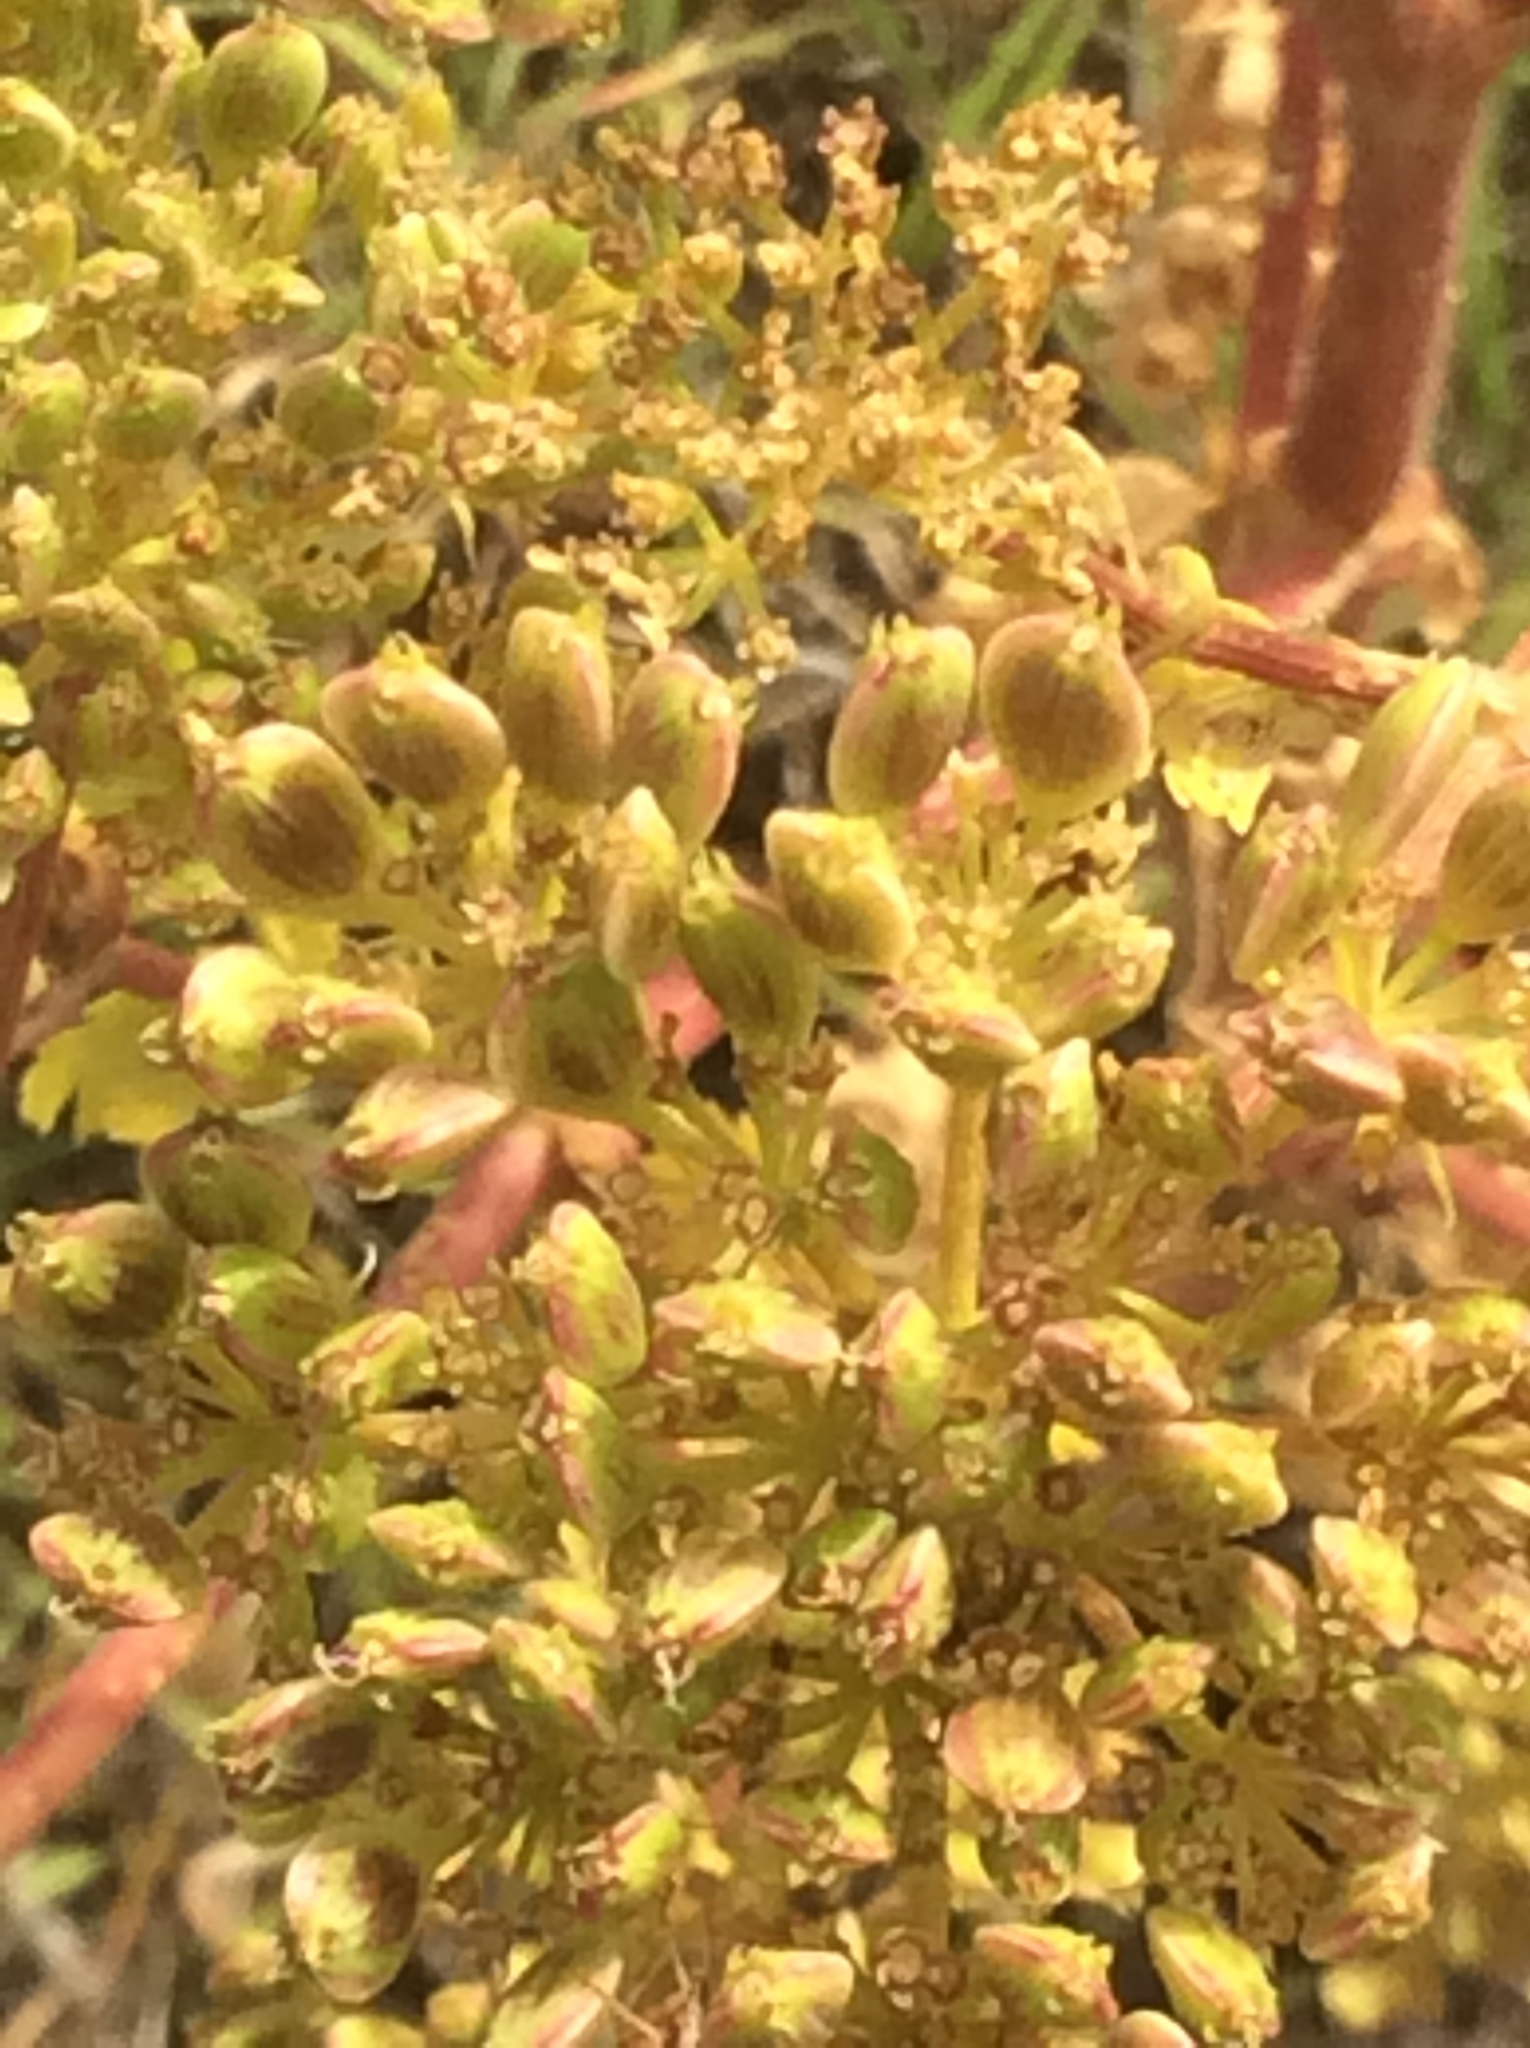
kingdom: Plantae
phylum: Tracheophyta
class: Magnoliopsida
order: Apiales
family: Apiaceae
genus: Polytaenia
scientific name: Polytaenia texana
